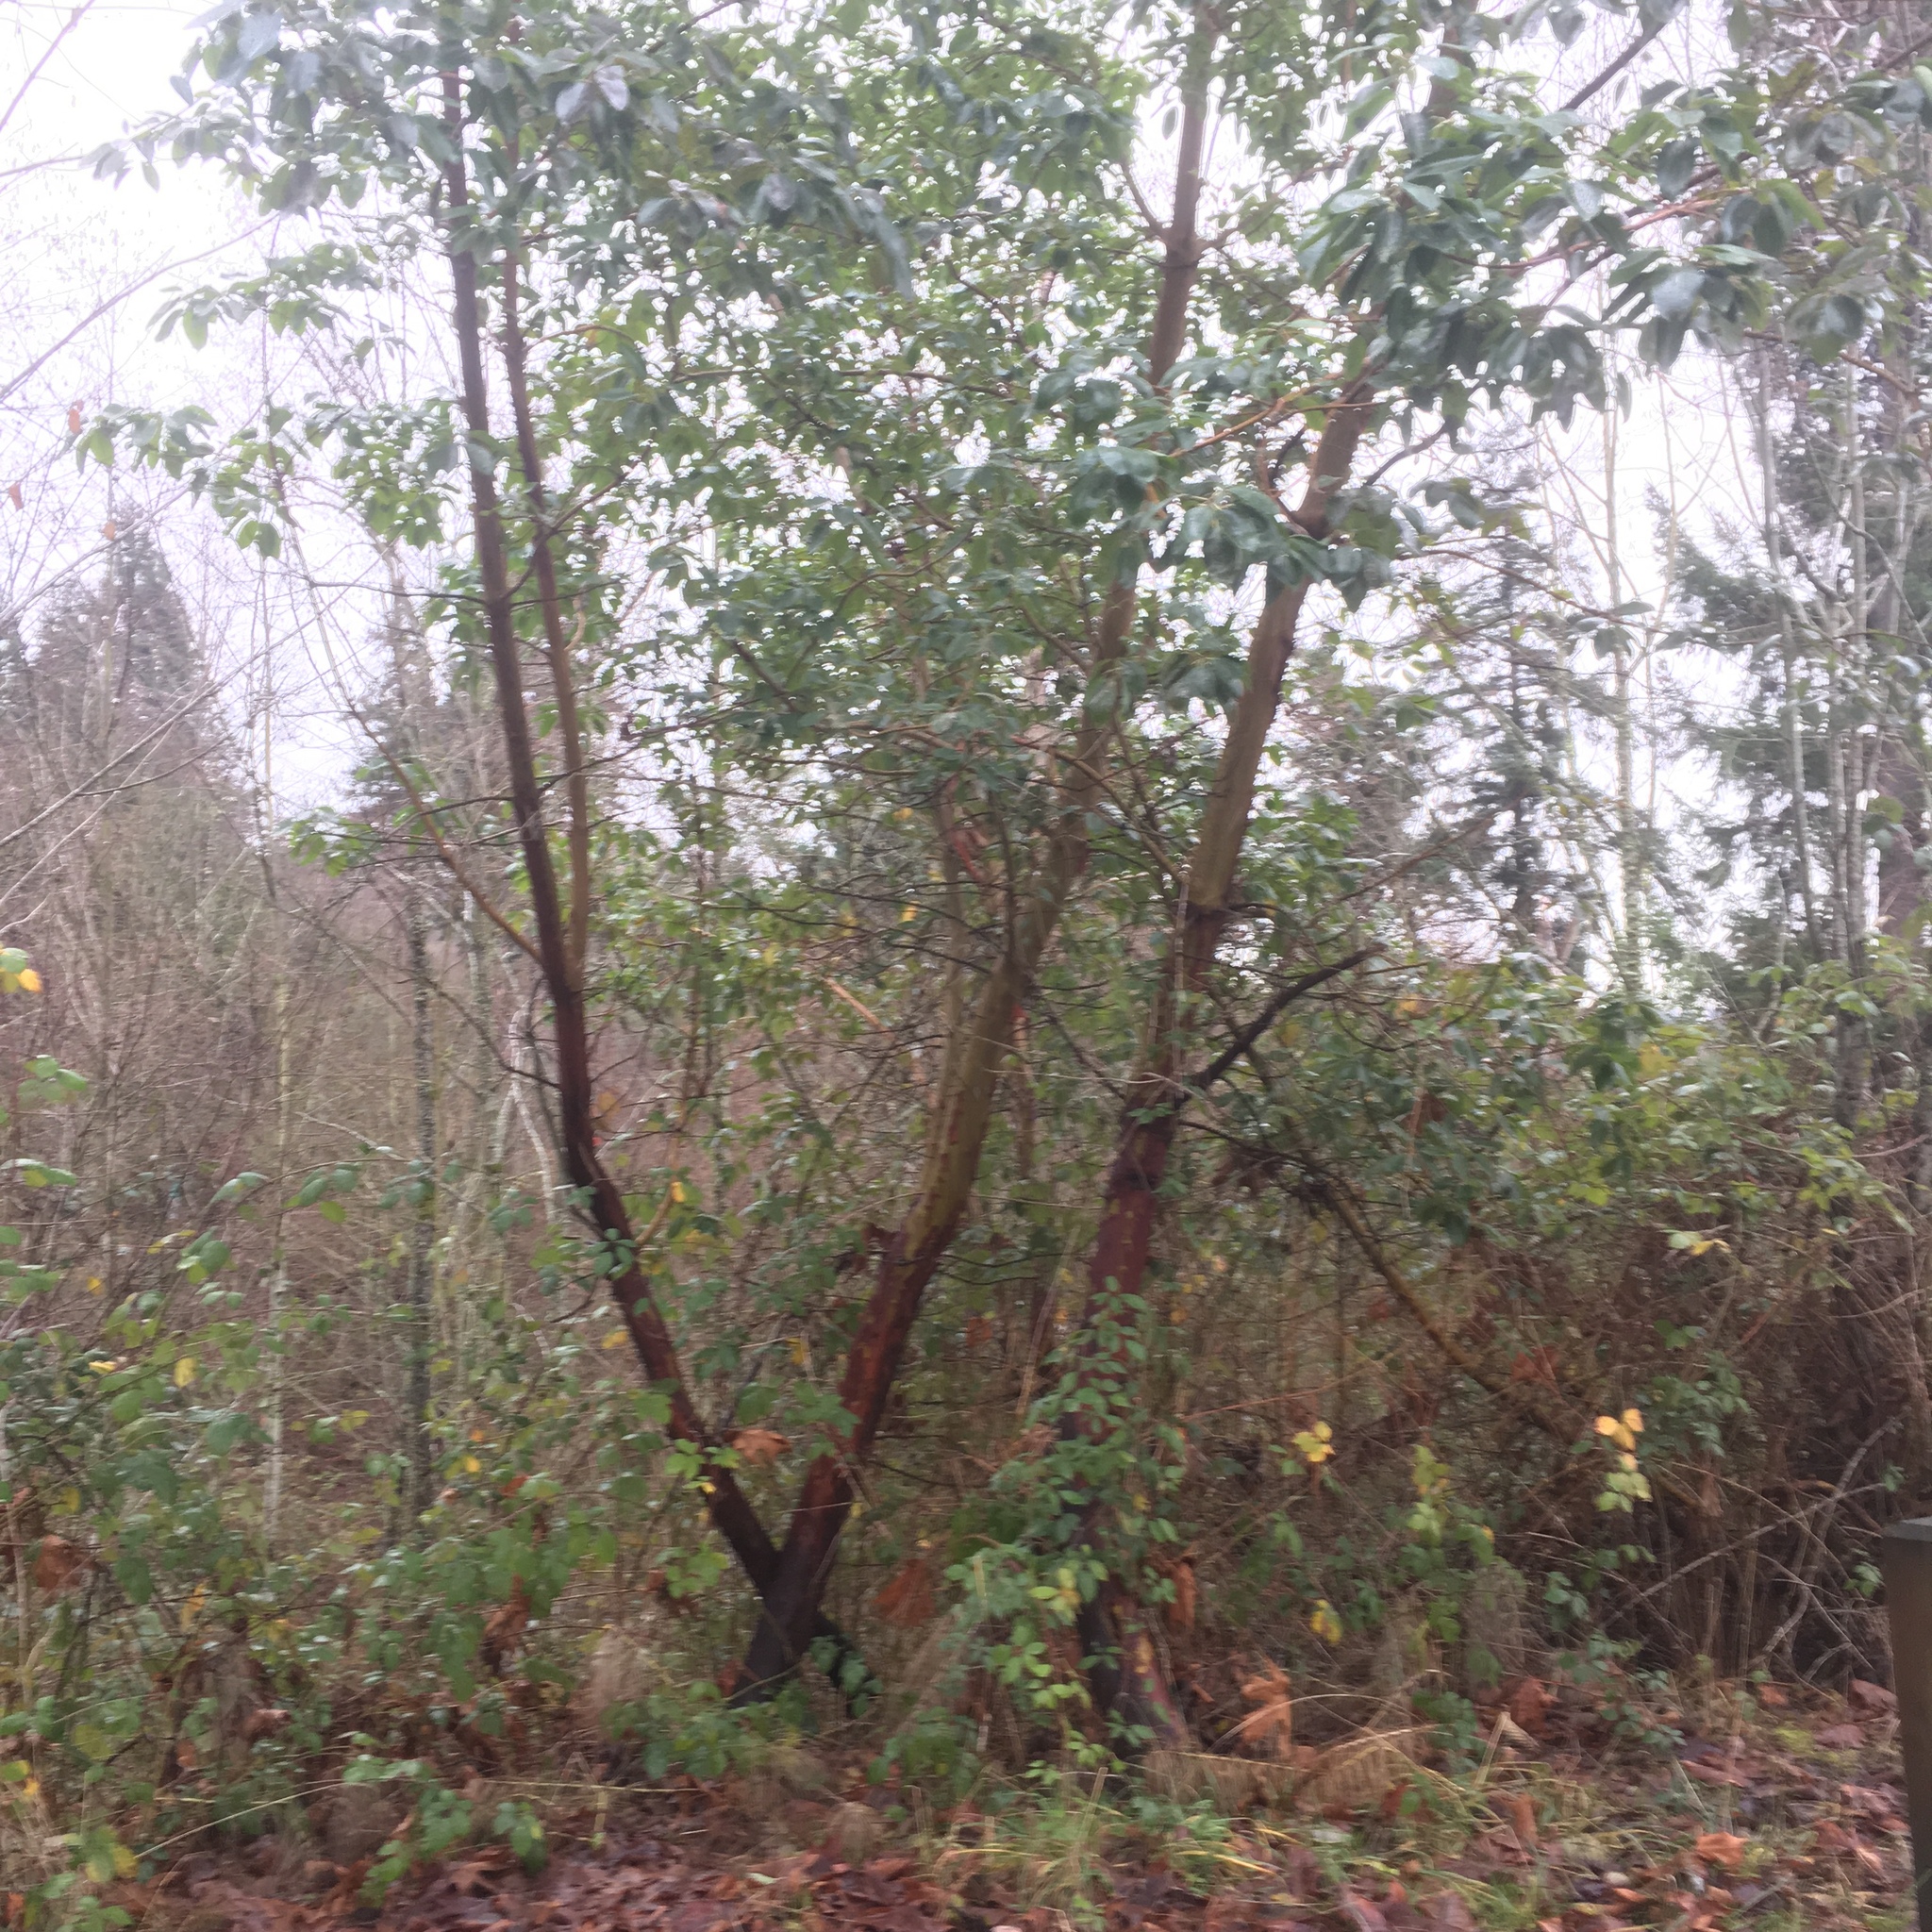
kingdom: Plantae
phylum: Tracheophyta
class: Magnoliopsida
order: Ericales
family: Ericaceae
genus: Arbutus
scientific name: Arbutus menziesii
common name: Pacific madrone
